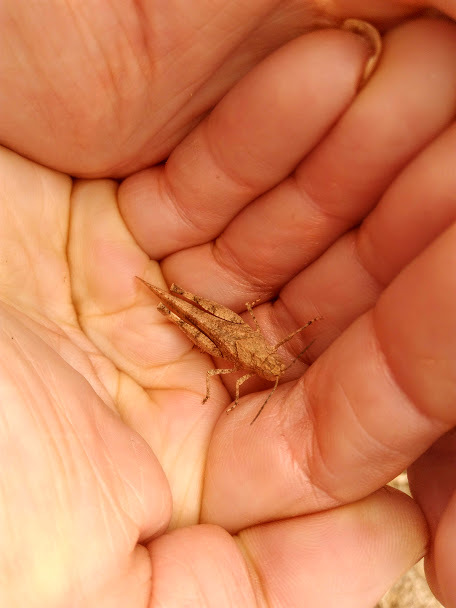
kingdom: Animalia
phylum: Arthropoda
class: Insecta
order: Orthoptera
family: Acrididae
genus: Lactista
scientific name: Lactista stramineus
